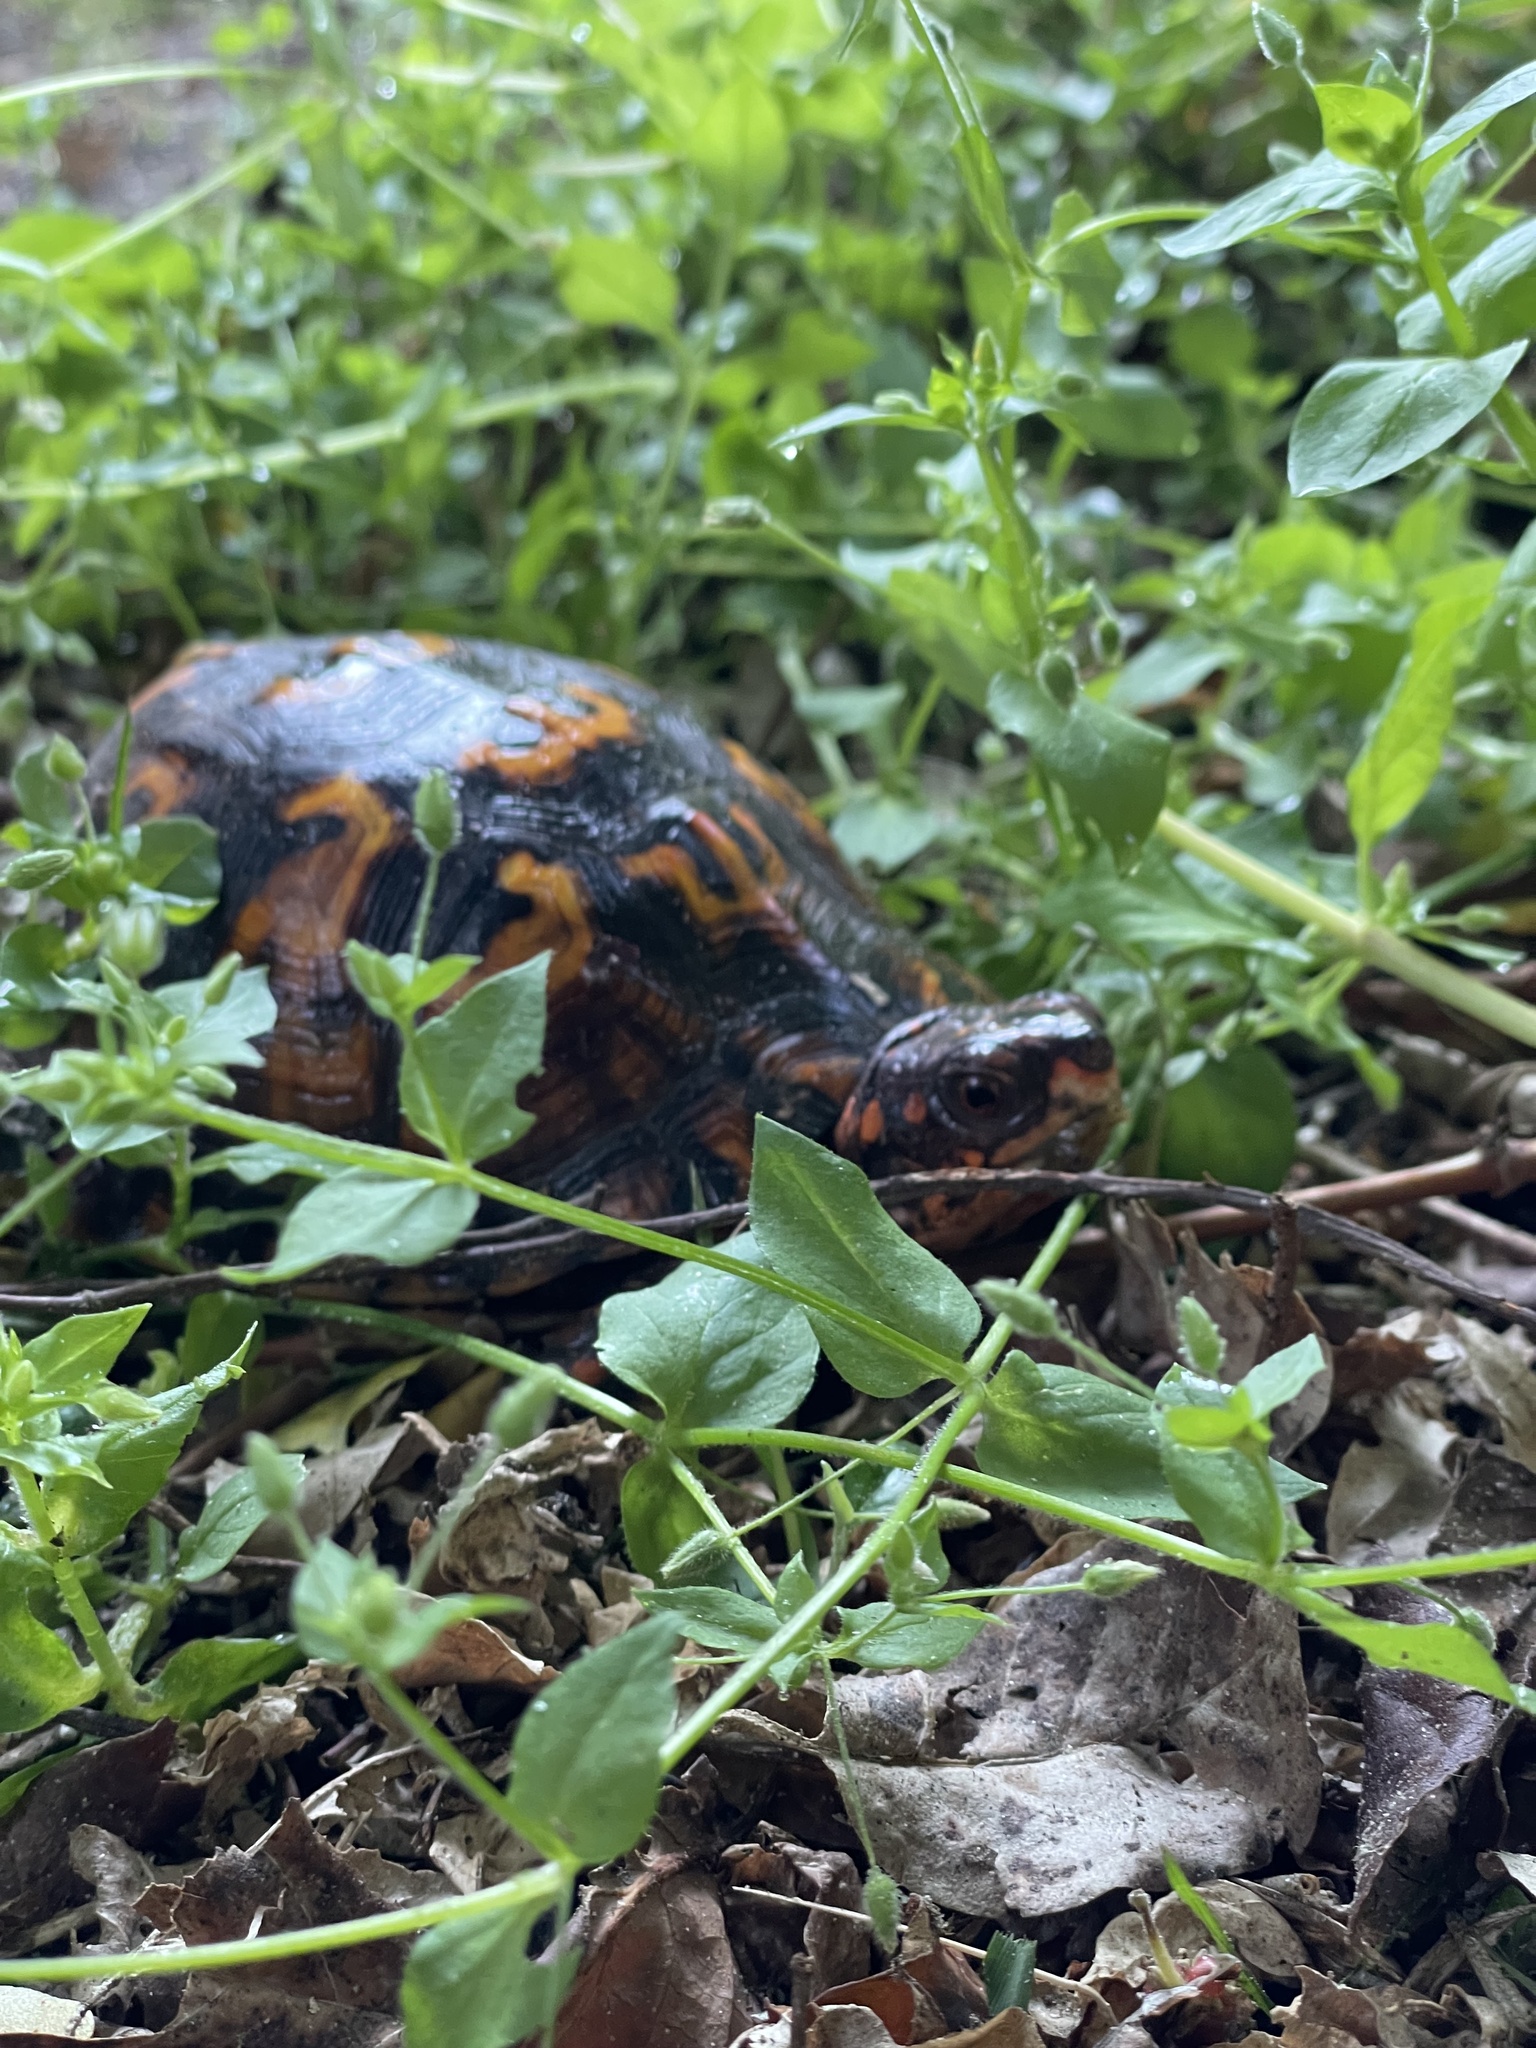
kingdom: Animalia
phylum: Chordata
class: Testudines
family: Emydidae
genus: Terrapene
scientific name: Terrapene carolina
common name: Common box turtle
